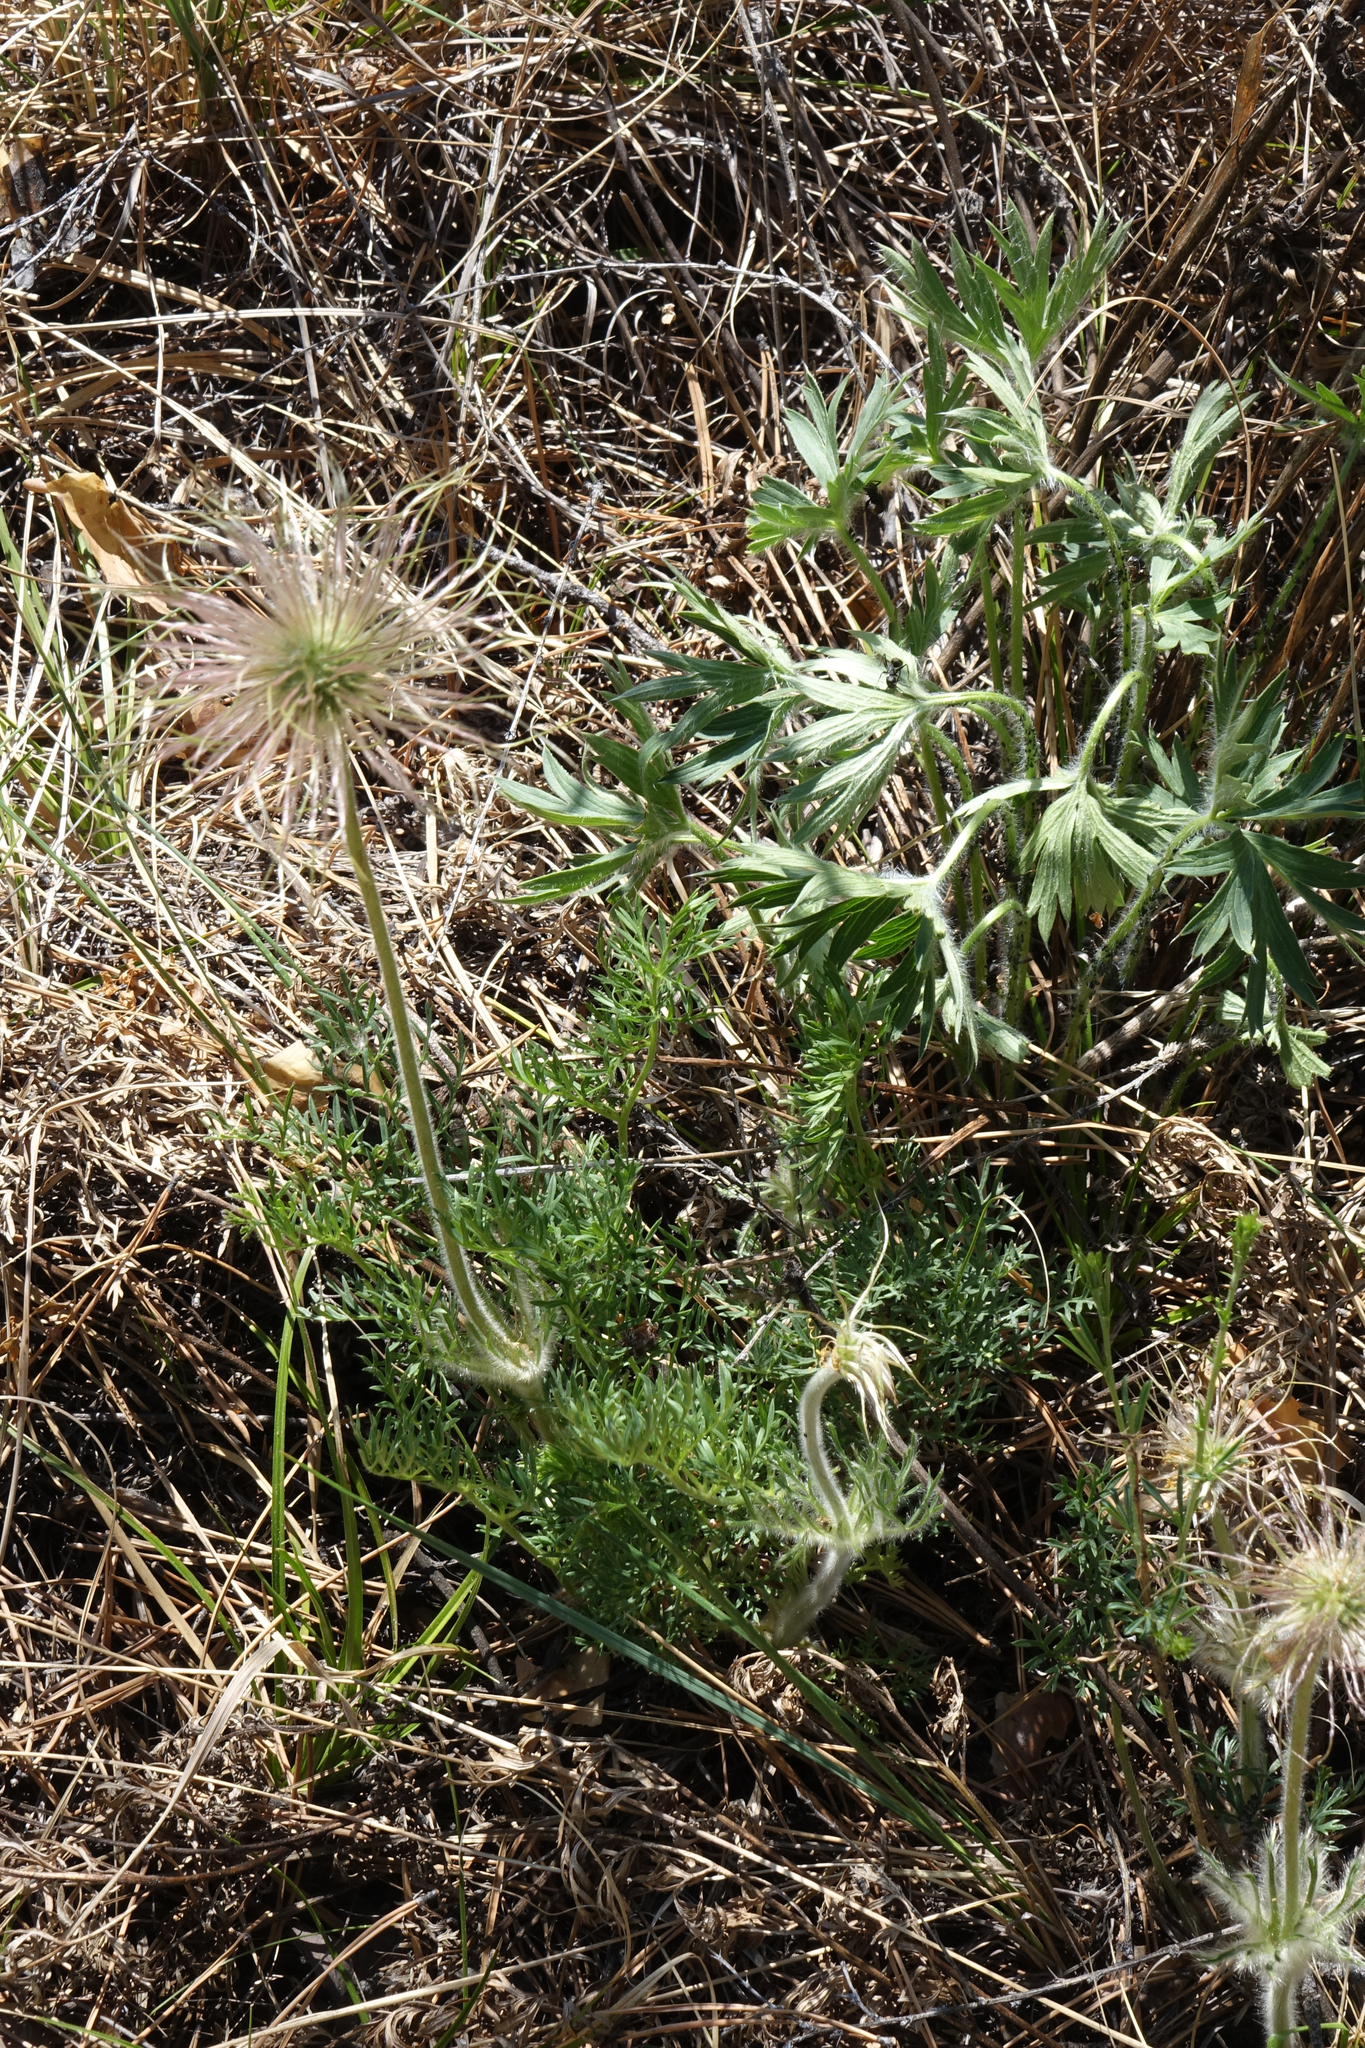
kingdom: Plantae
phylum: Tracheophyta
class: Magnoliopsida
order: Ranunculales
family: Ranunculaceae
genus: Pulsatilla
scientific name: Pulsatilla turczaninovii
